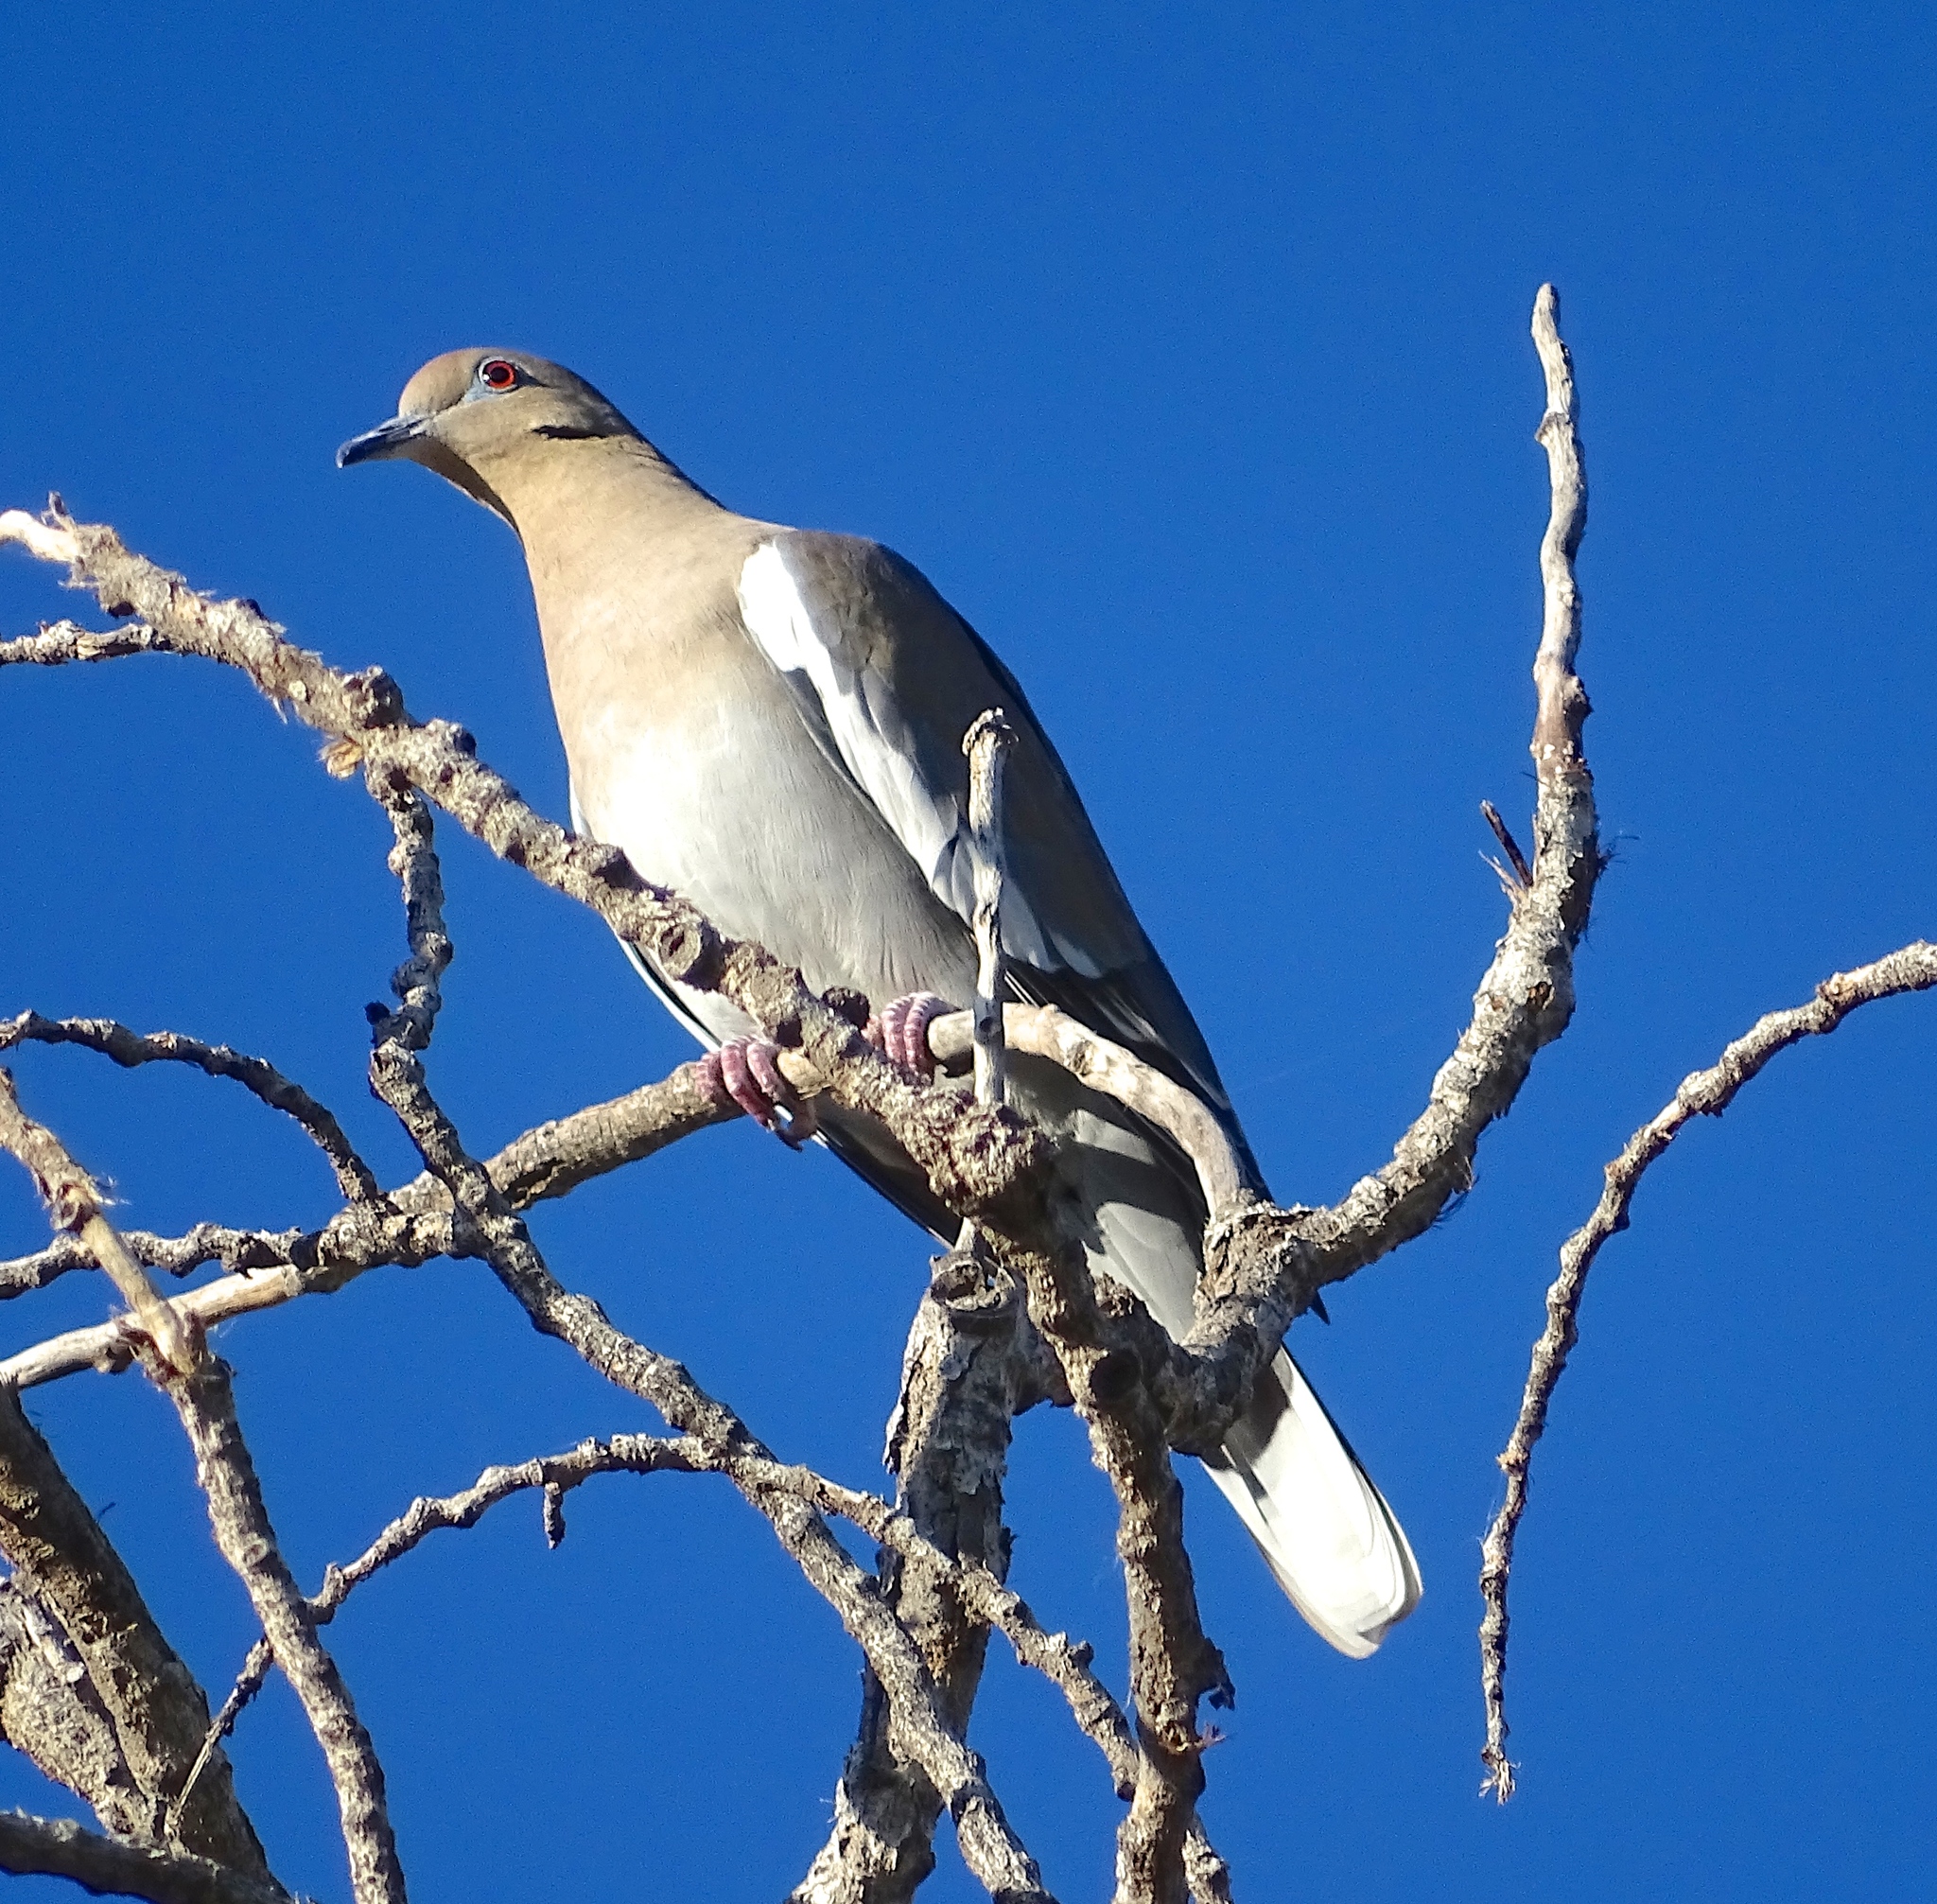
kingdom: Animalia
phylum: Chordata
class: Aves
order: Columbiformes
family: Columbidae
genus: Zenaida
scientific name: Zenaida asiatica
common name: White-winged dove
